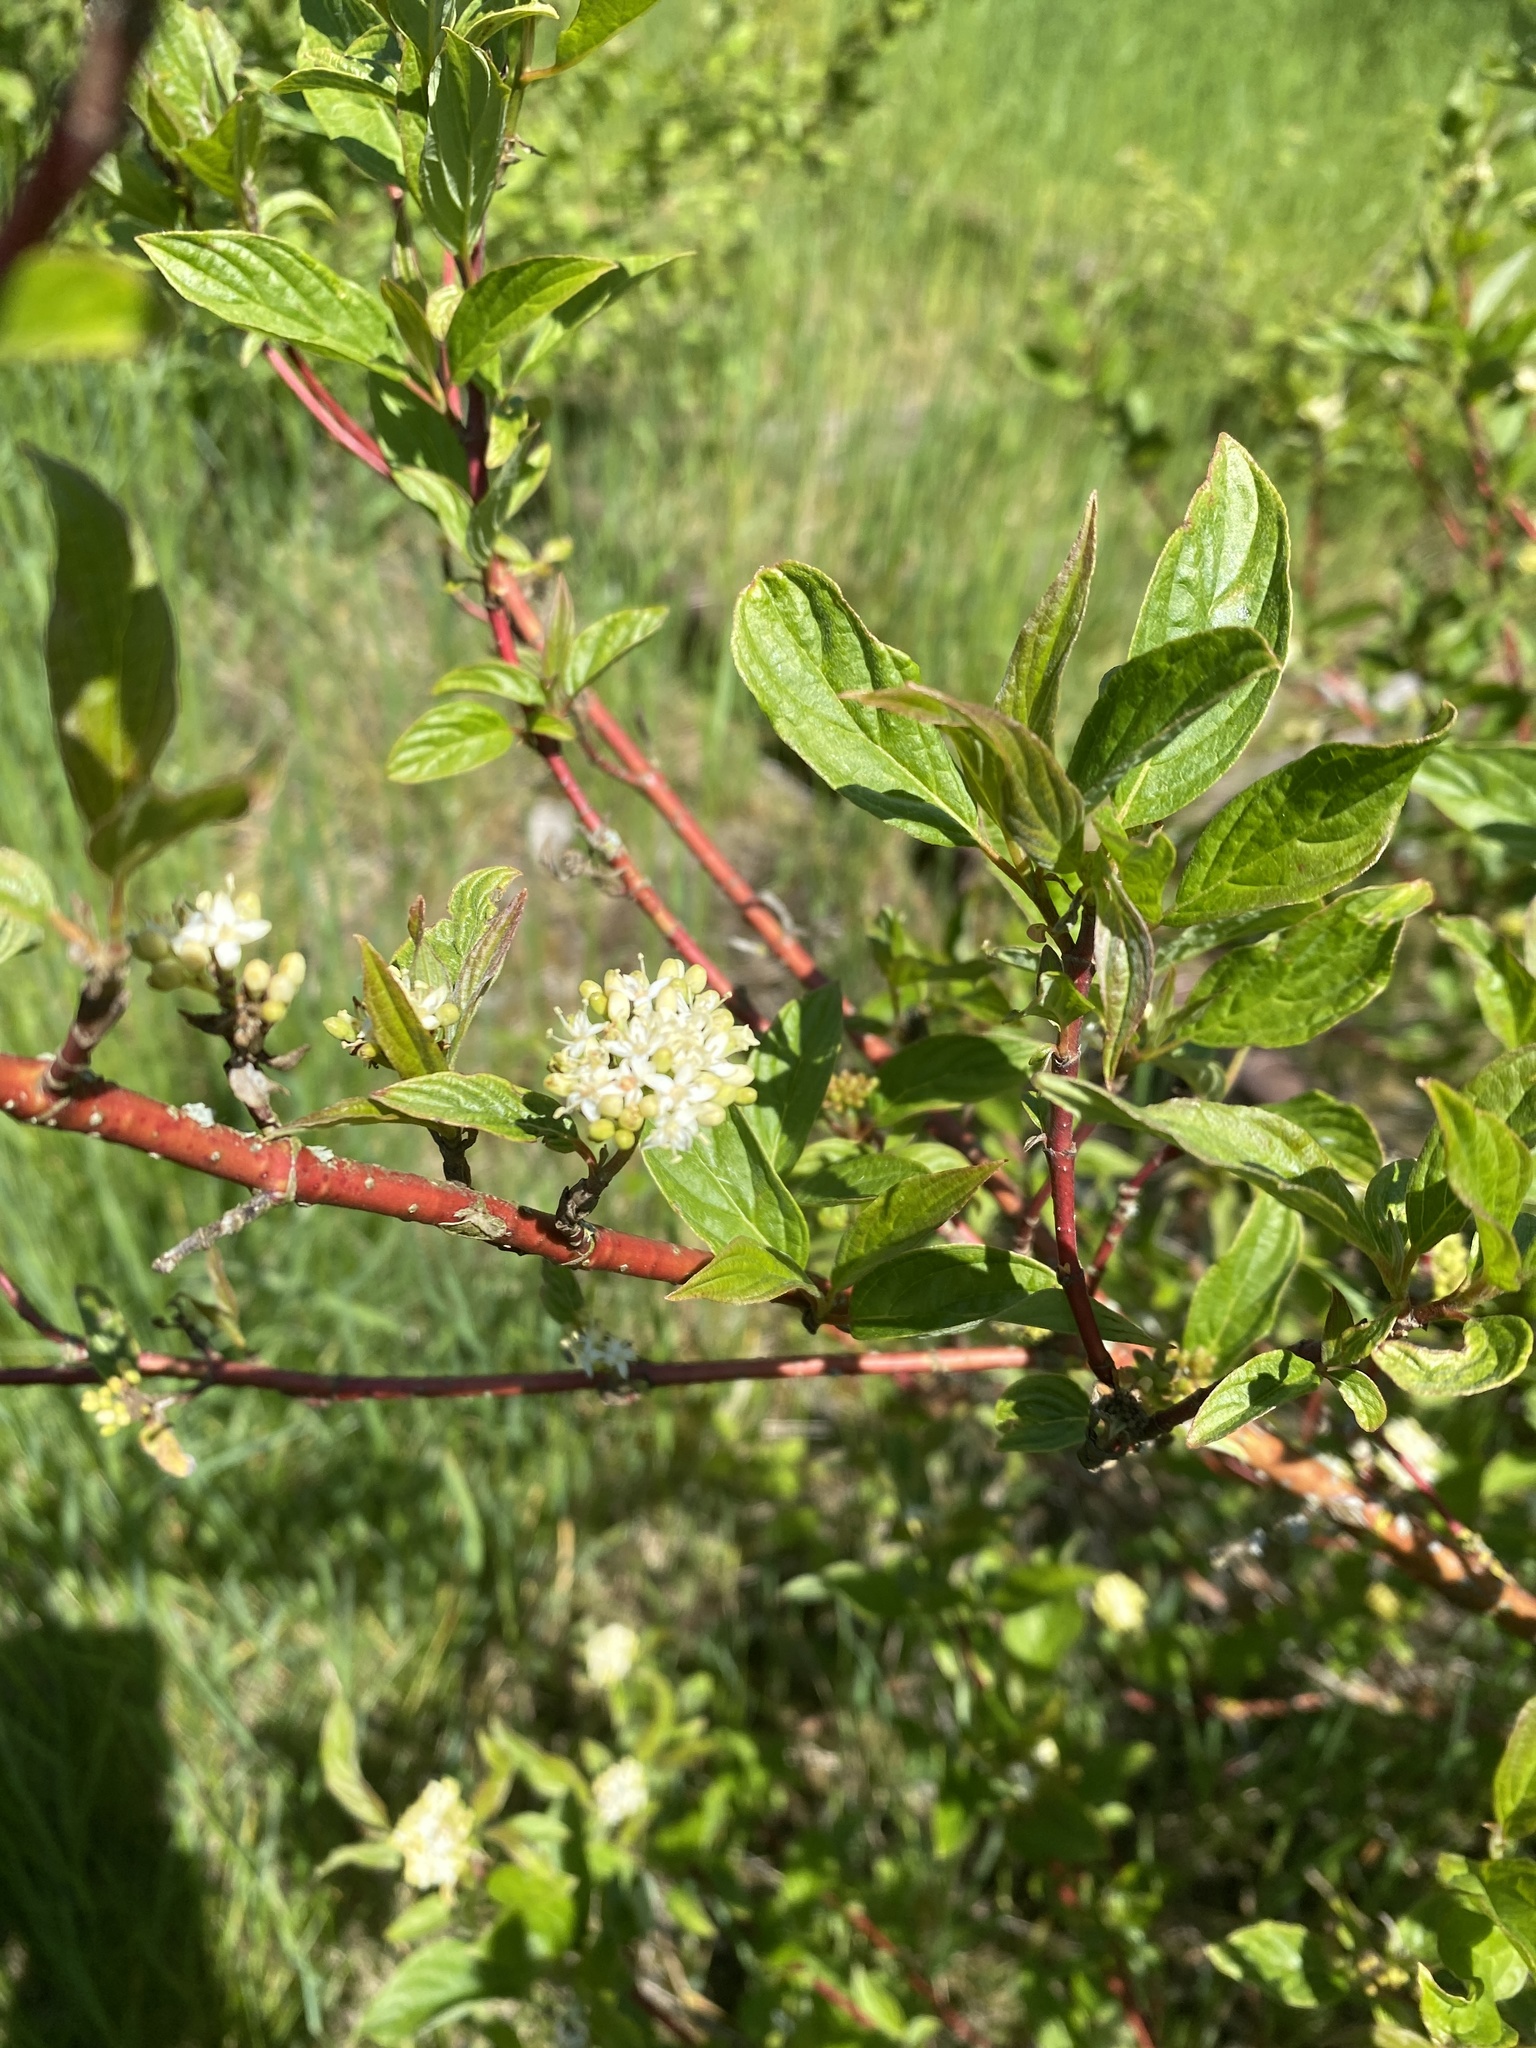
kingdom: Plantae
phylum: Tracheophyta
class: Magnoliopsida
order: Cornales
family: Cornaceae
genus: Cornus
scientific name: Cornus sanguinea
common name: Dogwood
